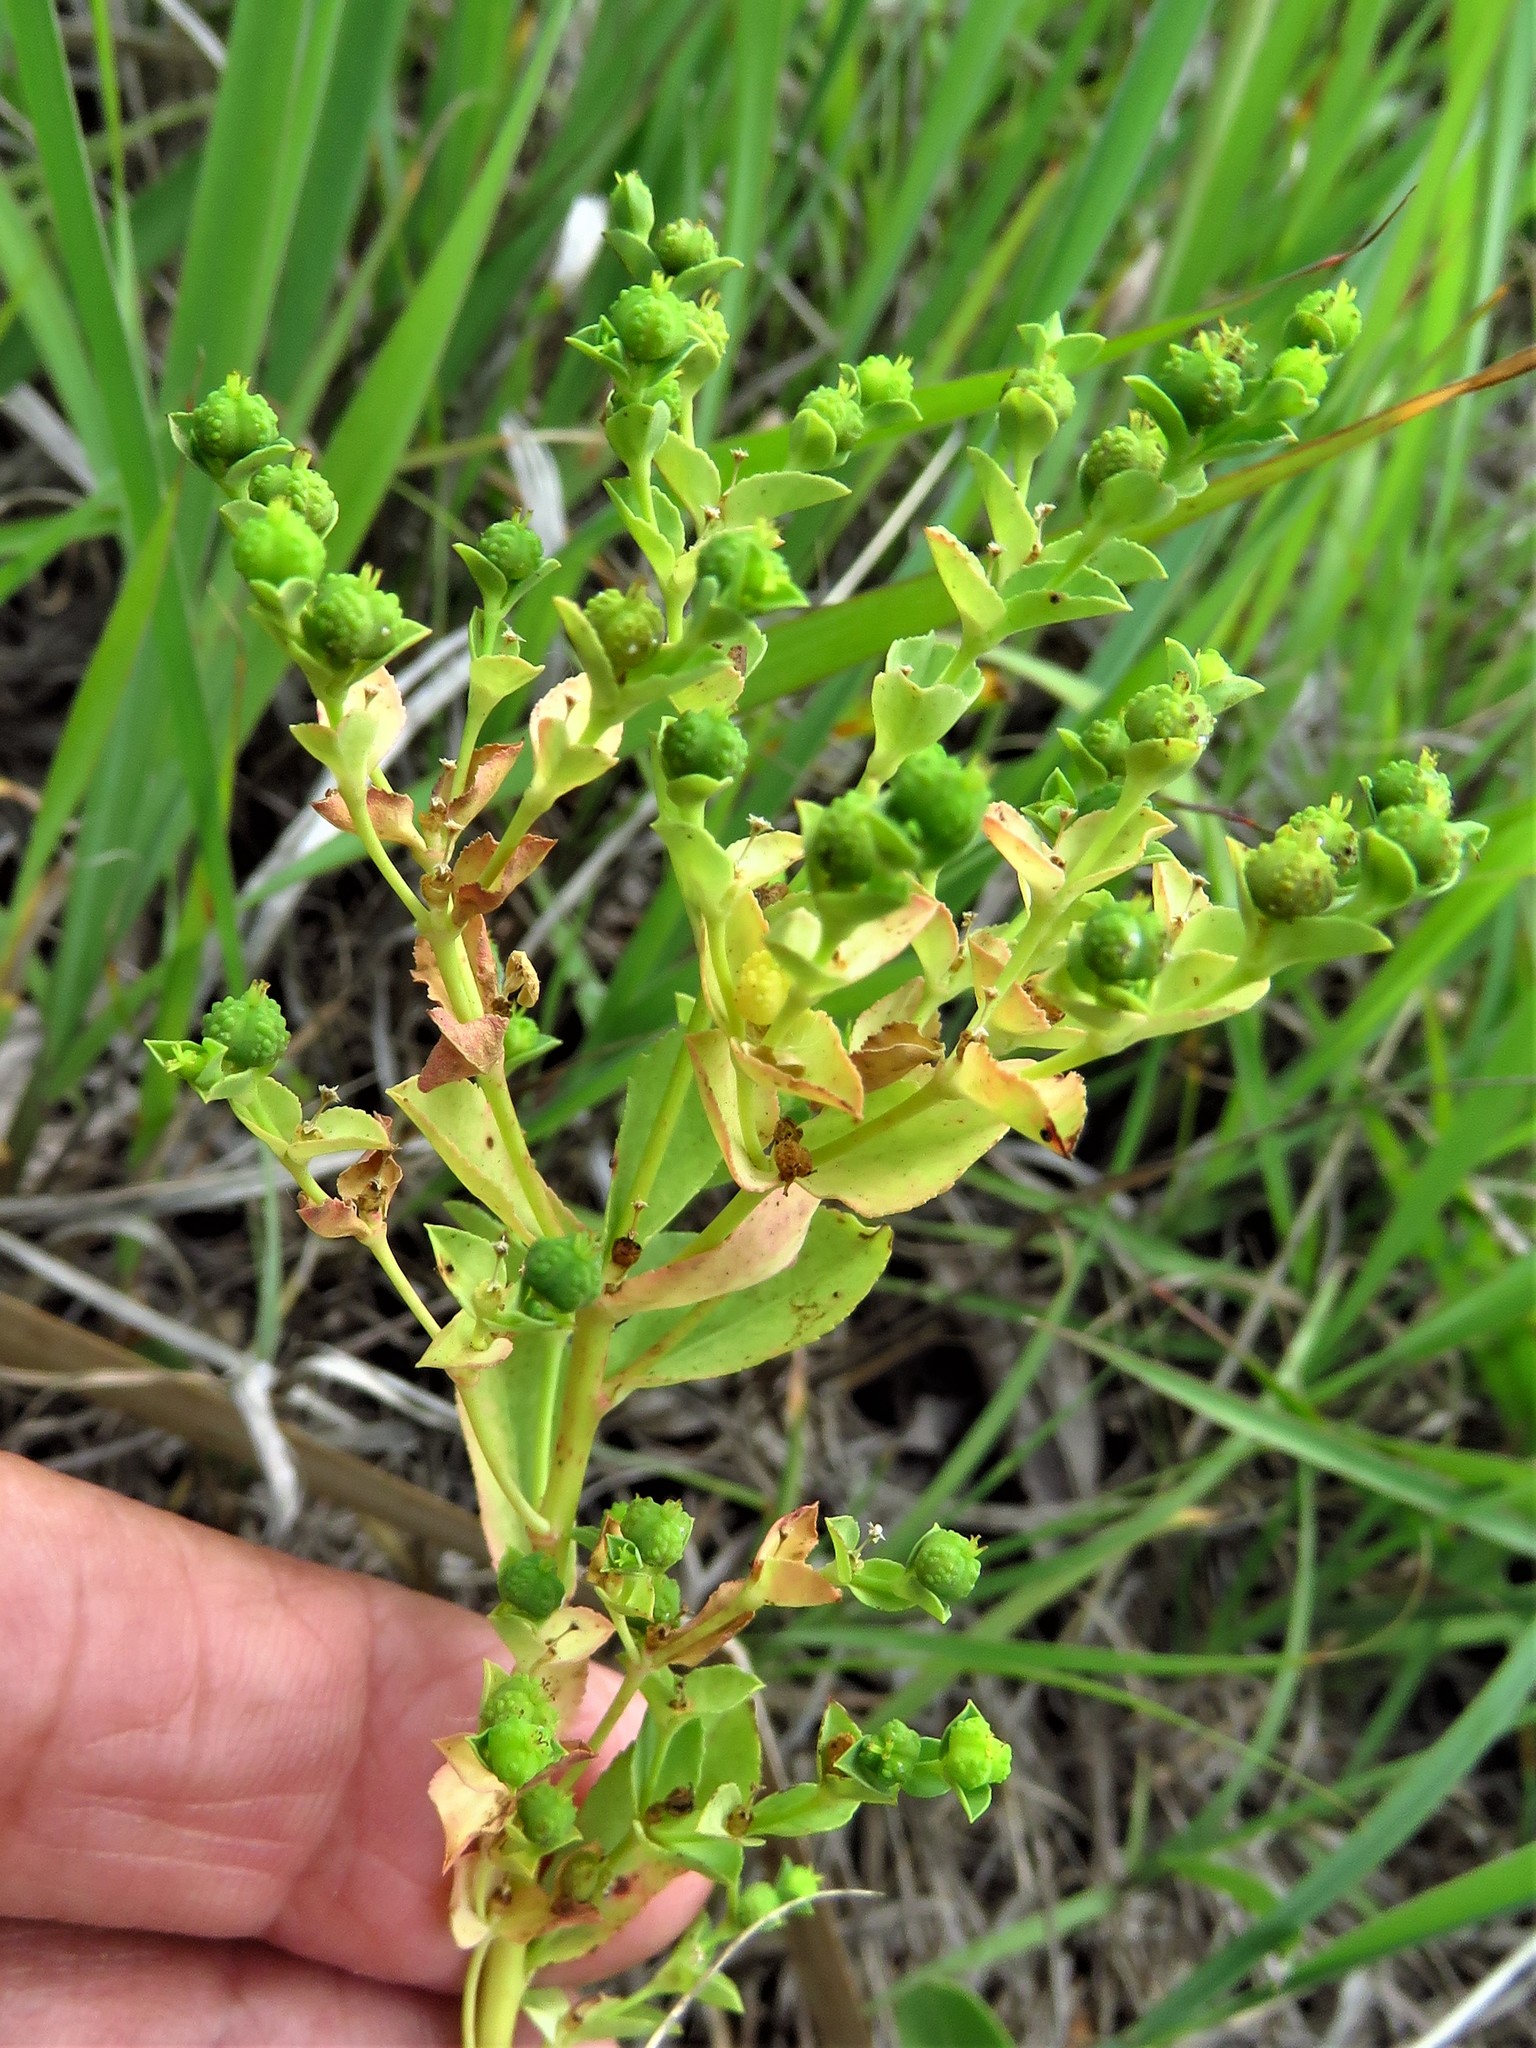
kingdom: Plantae
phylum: Tracheophyta
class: Magnoliopsida
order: Malpighiales
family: Euphorbiaceae
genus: Euphorbia
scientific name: Euphorbia spathulata
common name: Blunt spurge
